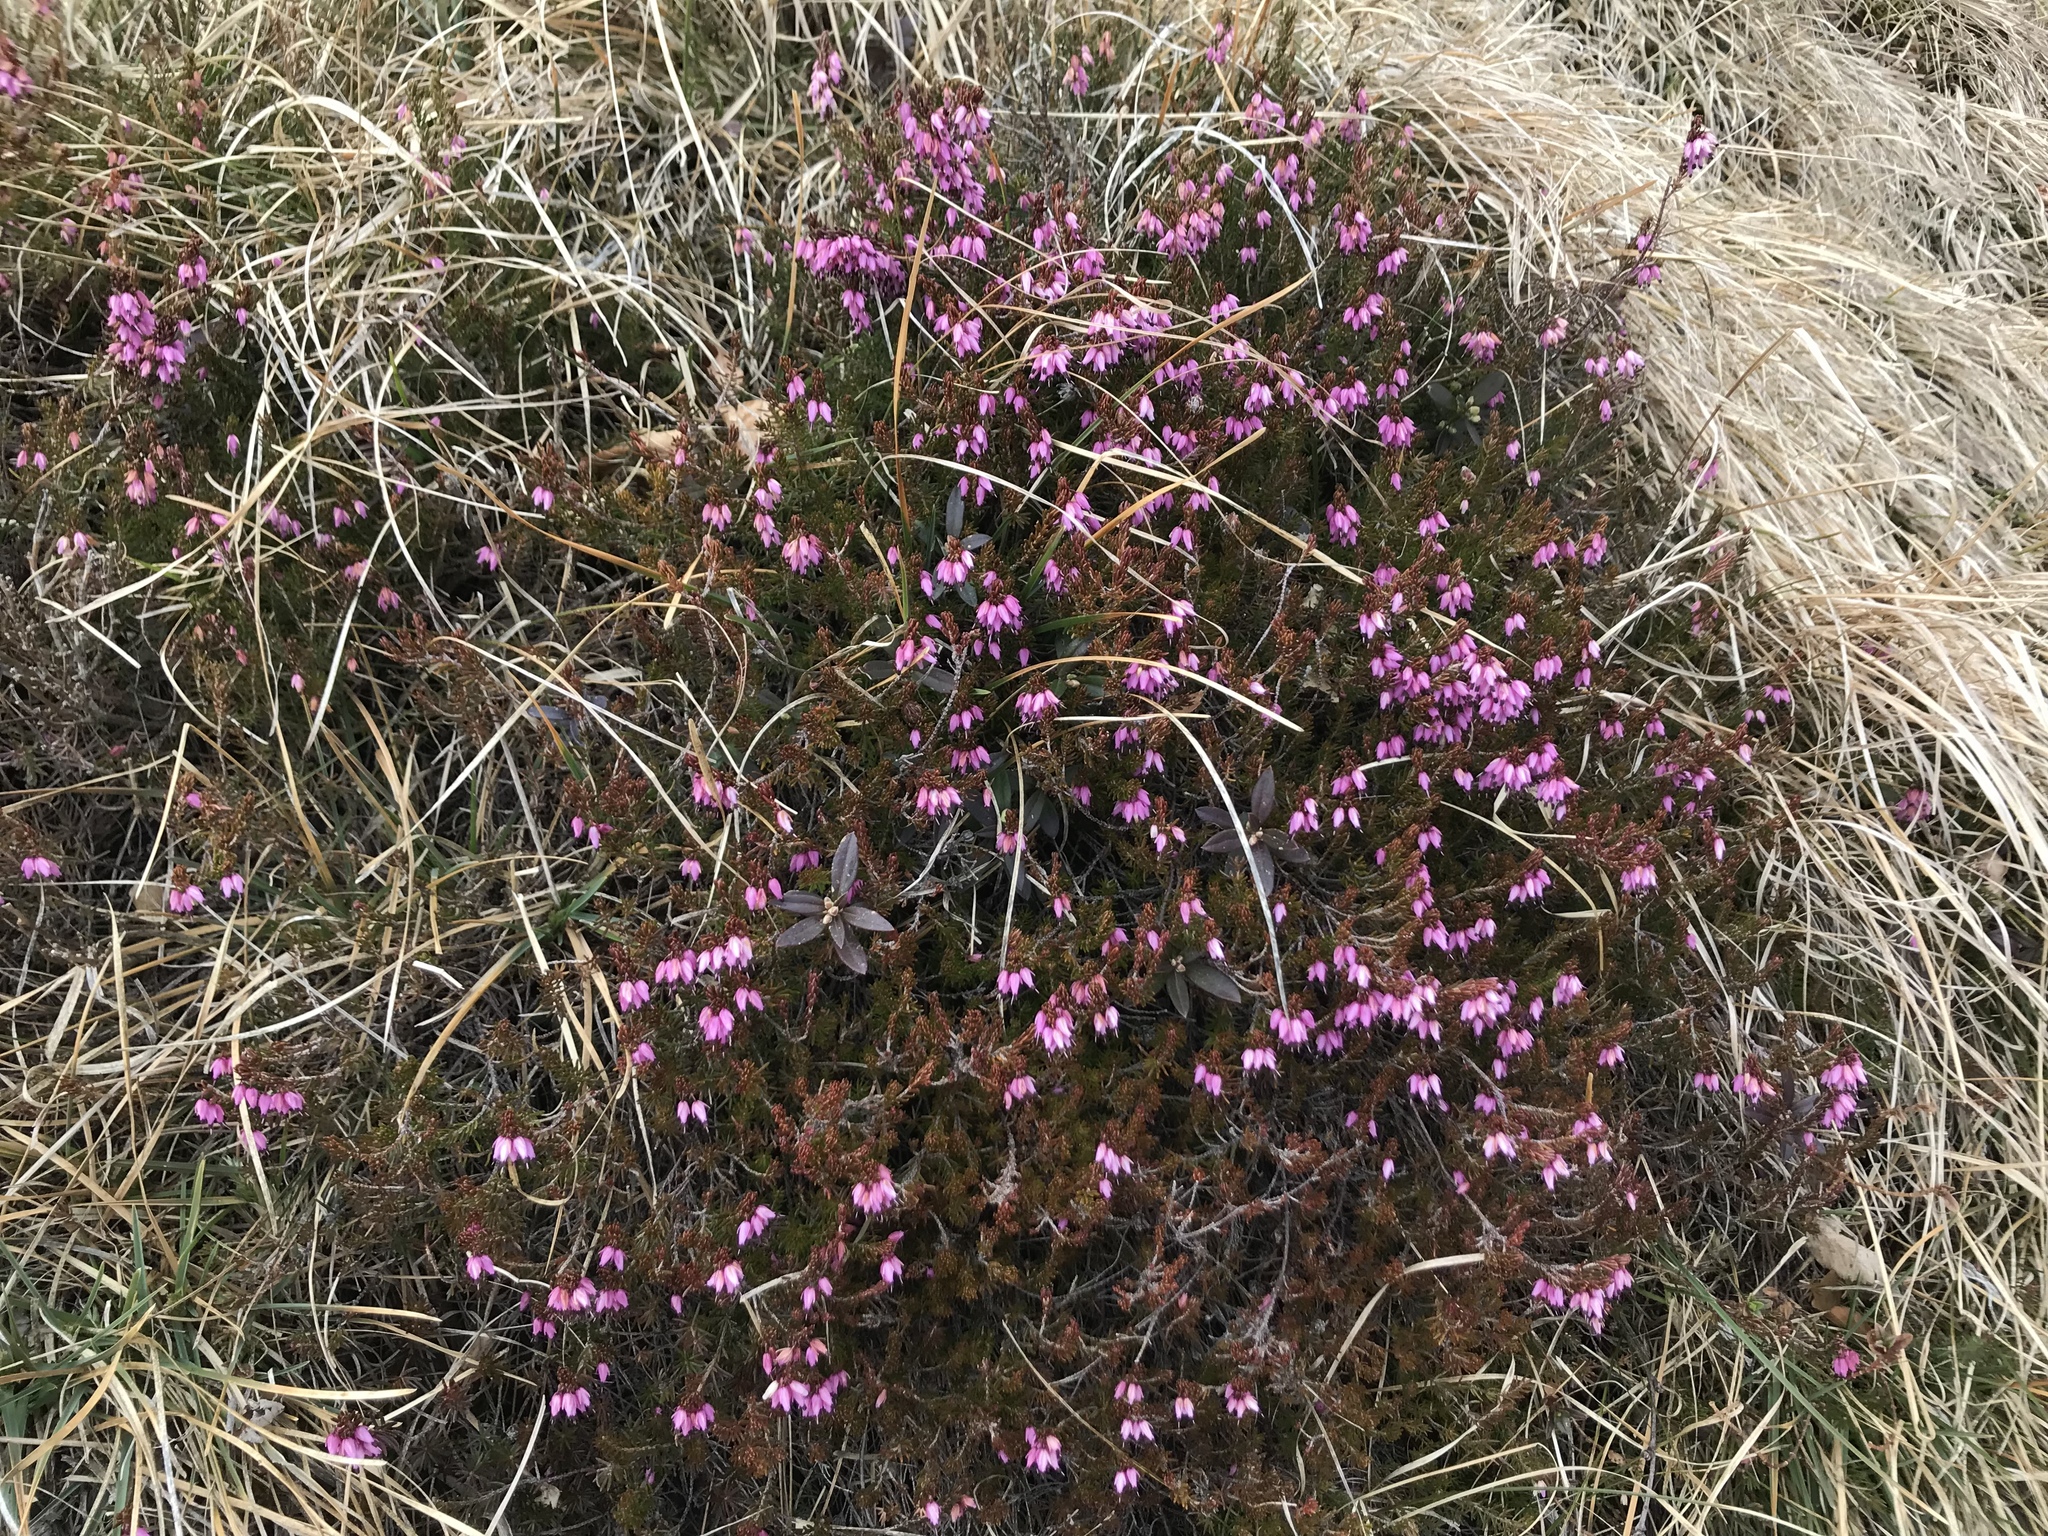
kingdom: Plantae
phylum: Tracheophyta
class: Magnoliopsida
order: Ericales
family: Ericaceae
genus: Erica
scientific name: Erica carnea
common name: Winter heath
